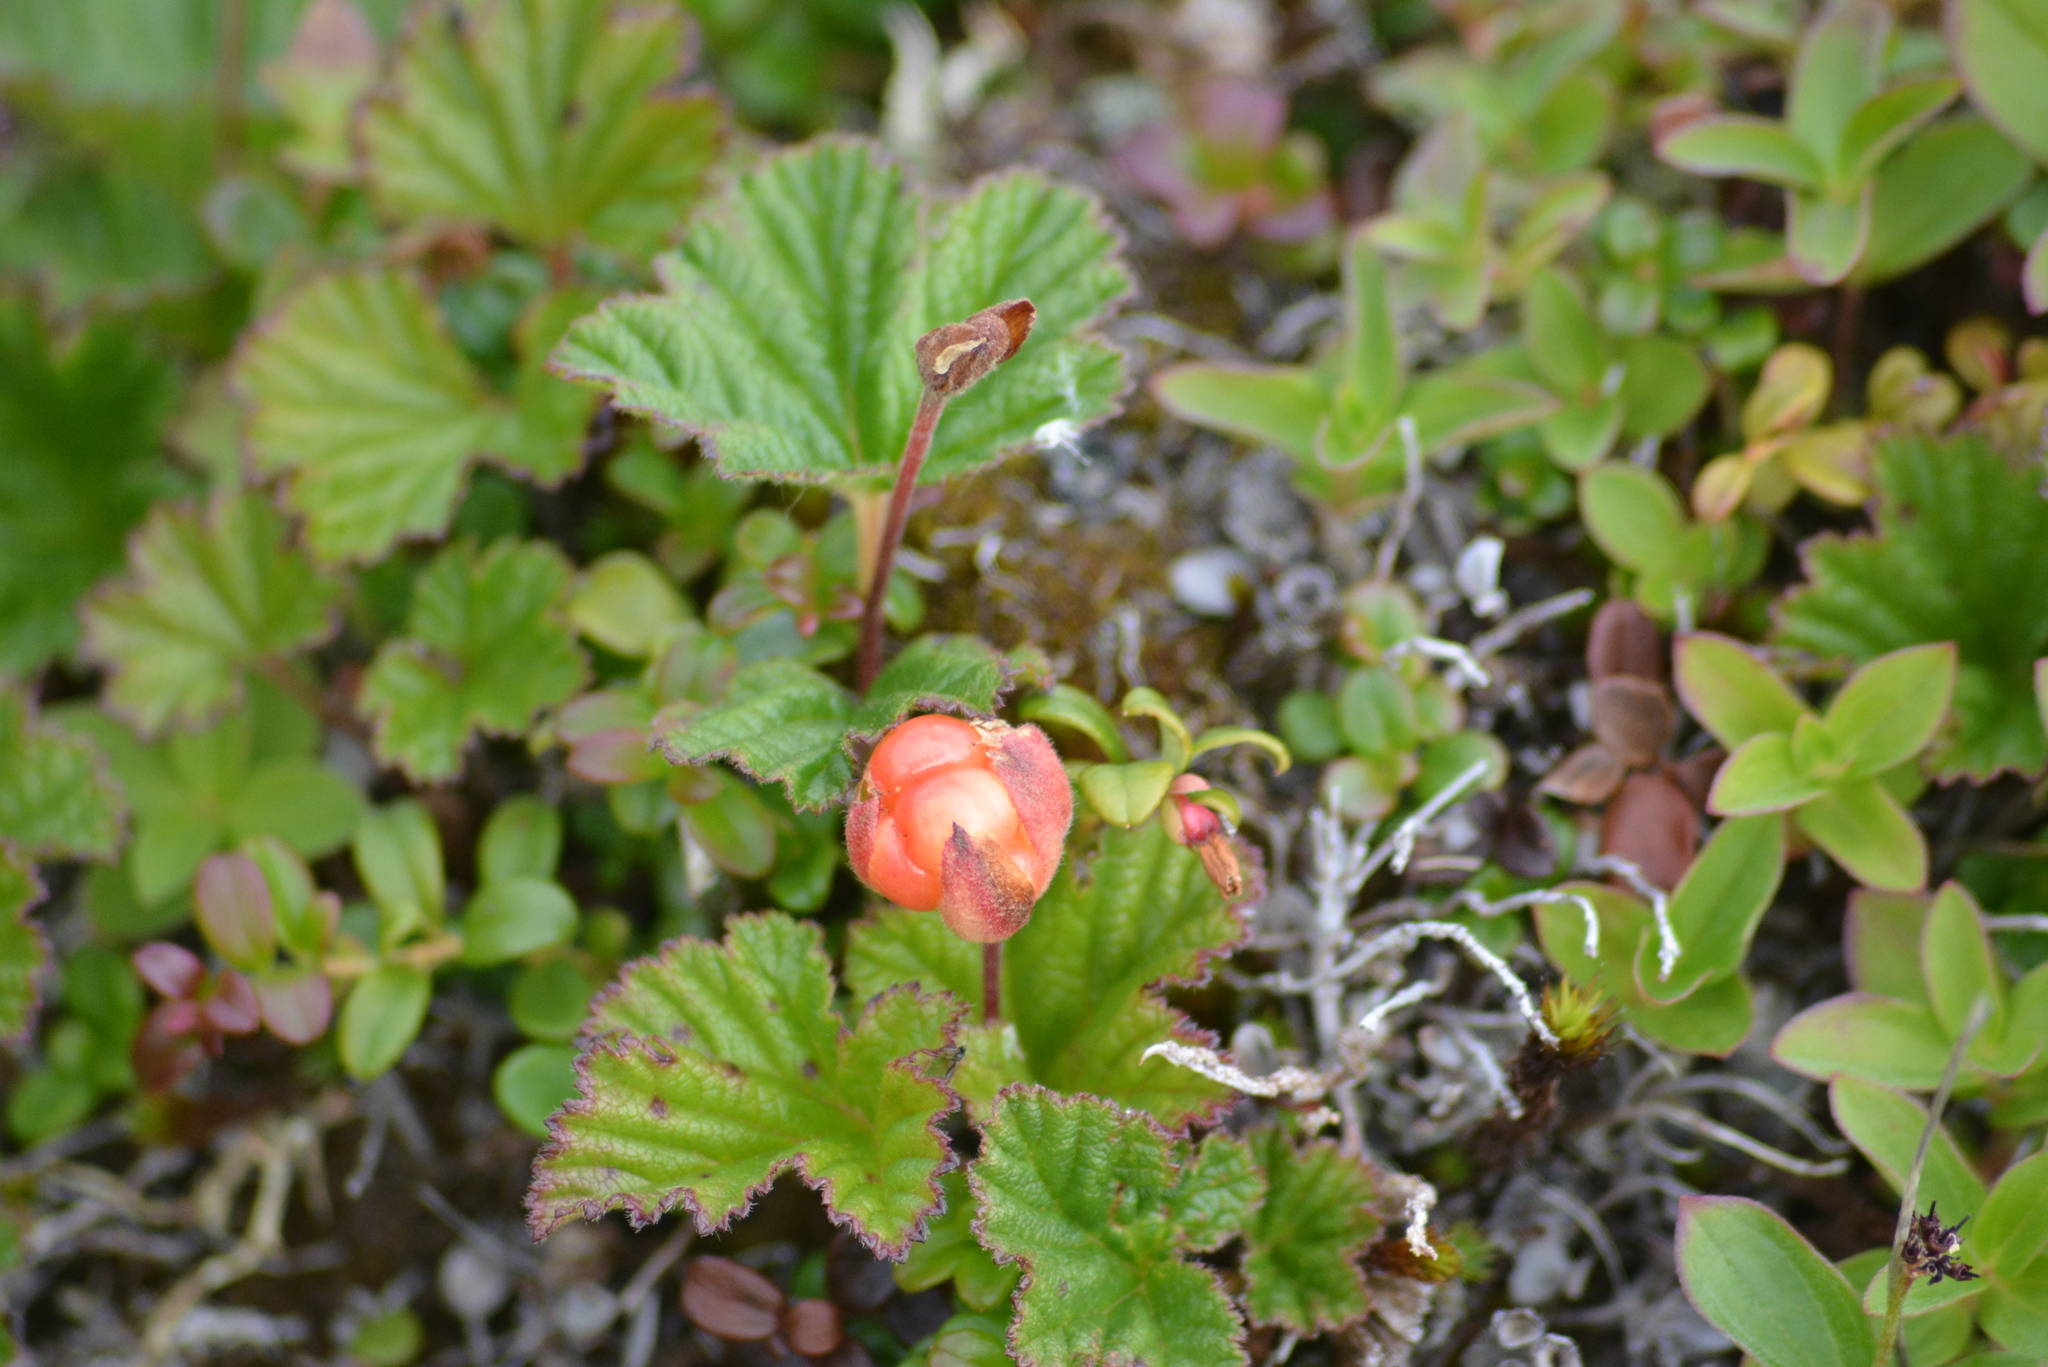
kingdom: Plantae
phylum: Tracheophyta
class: Magnoliopsida
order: Rosales
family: Rosaceae
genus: Rubus
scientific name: Rubus chamaemorus
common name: Cloudberry
